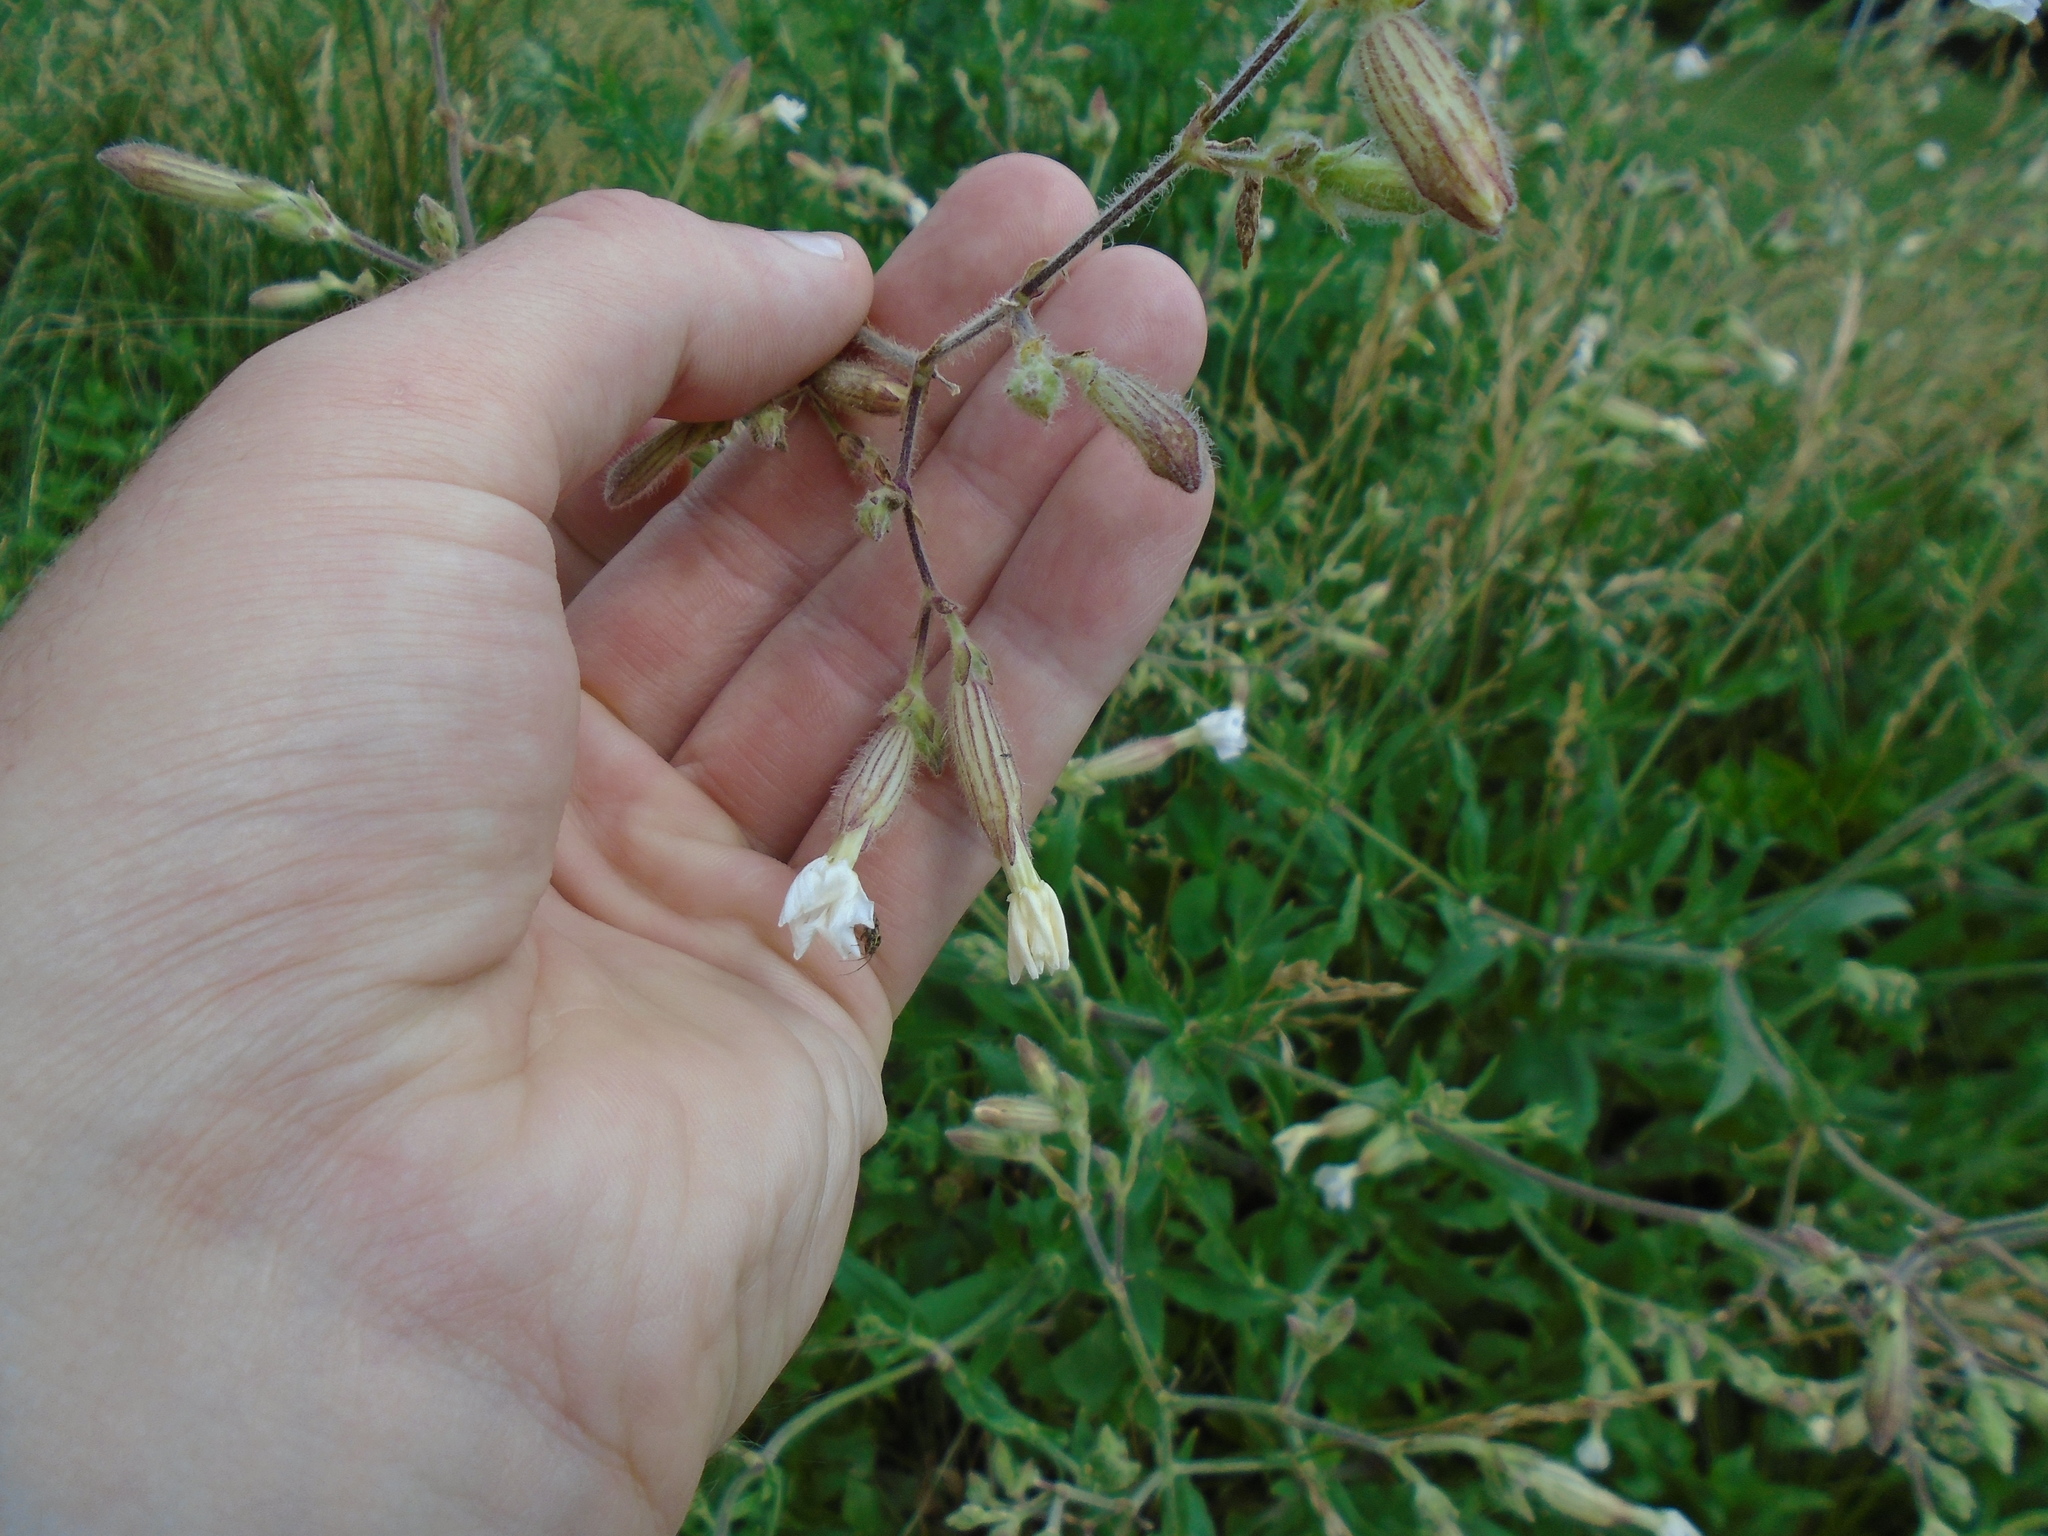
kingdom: Plantae
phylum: Tracheophyta
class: Magnoliopsida
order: Caryophyllales
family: Caryophyllaceae
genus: Silene
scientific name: Silene latifolia
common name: White campion
